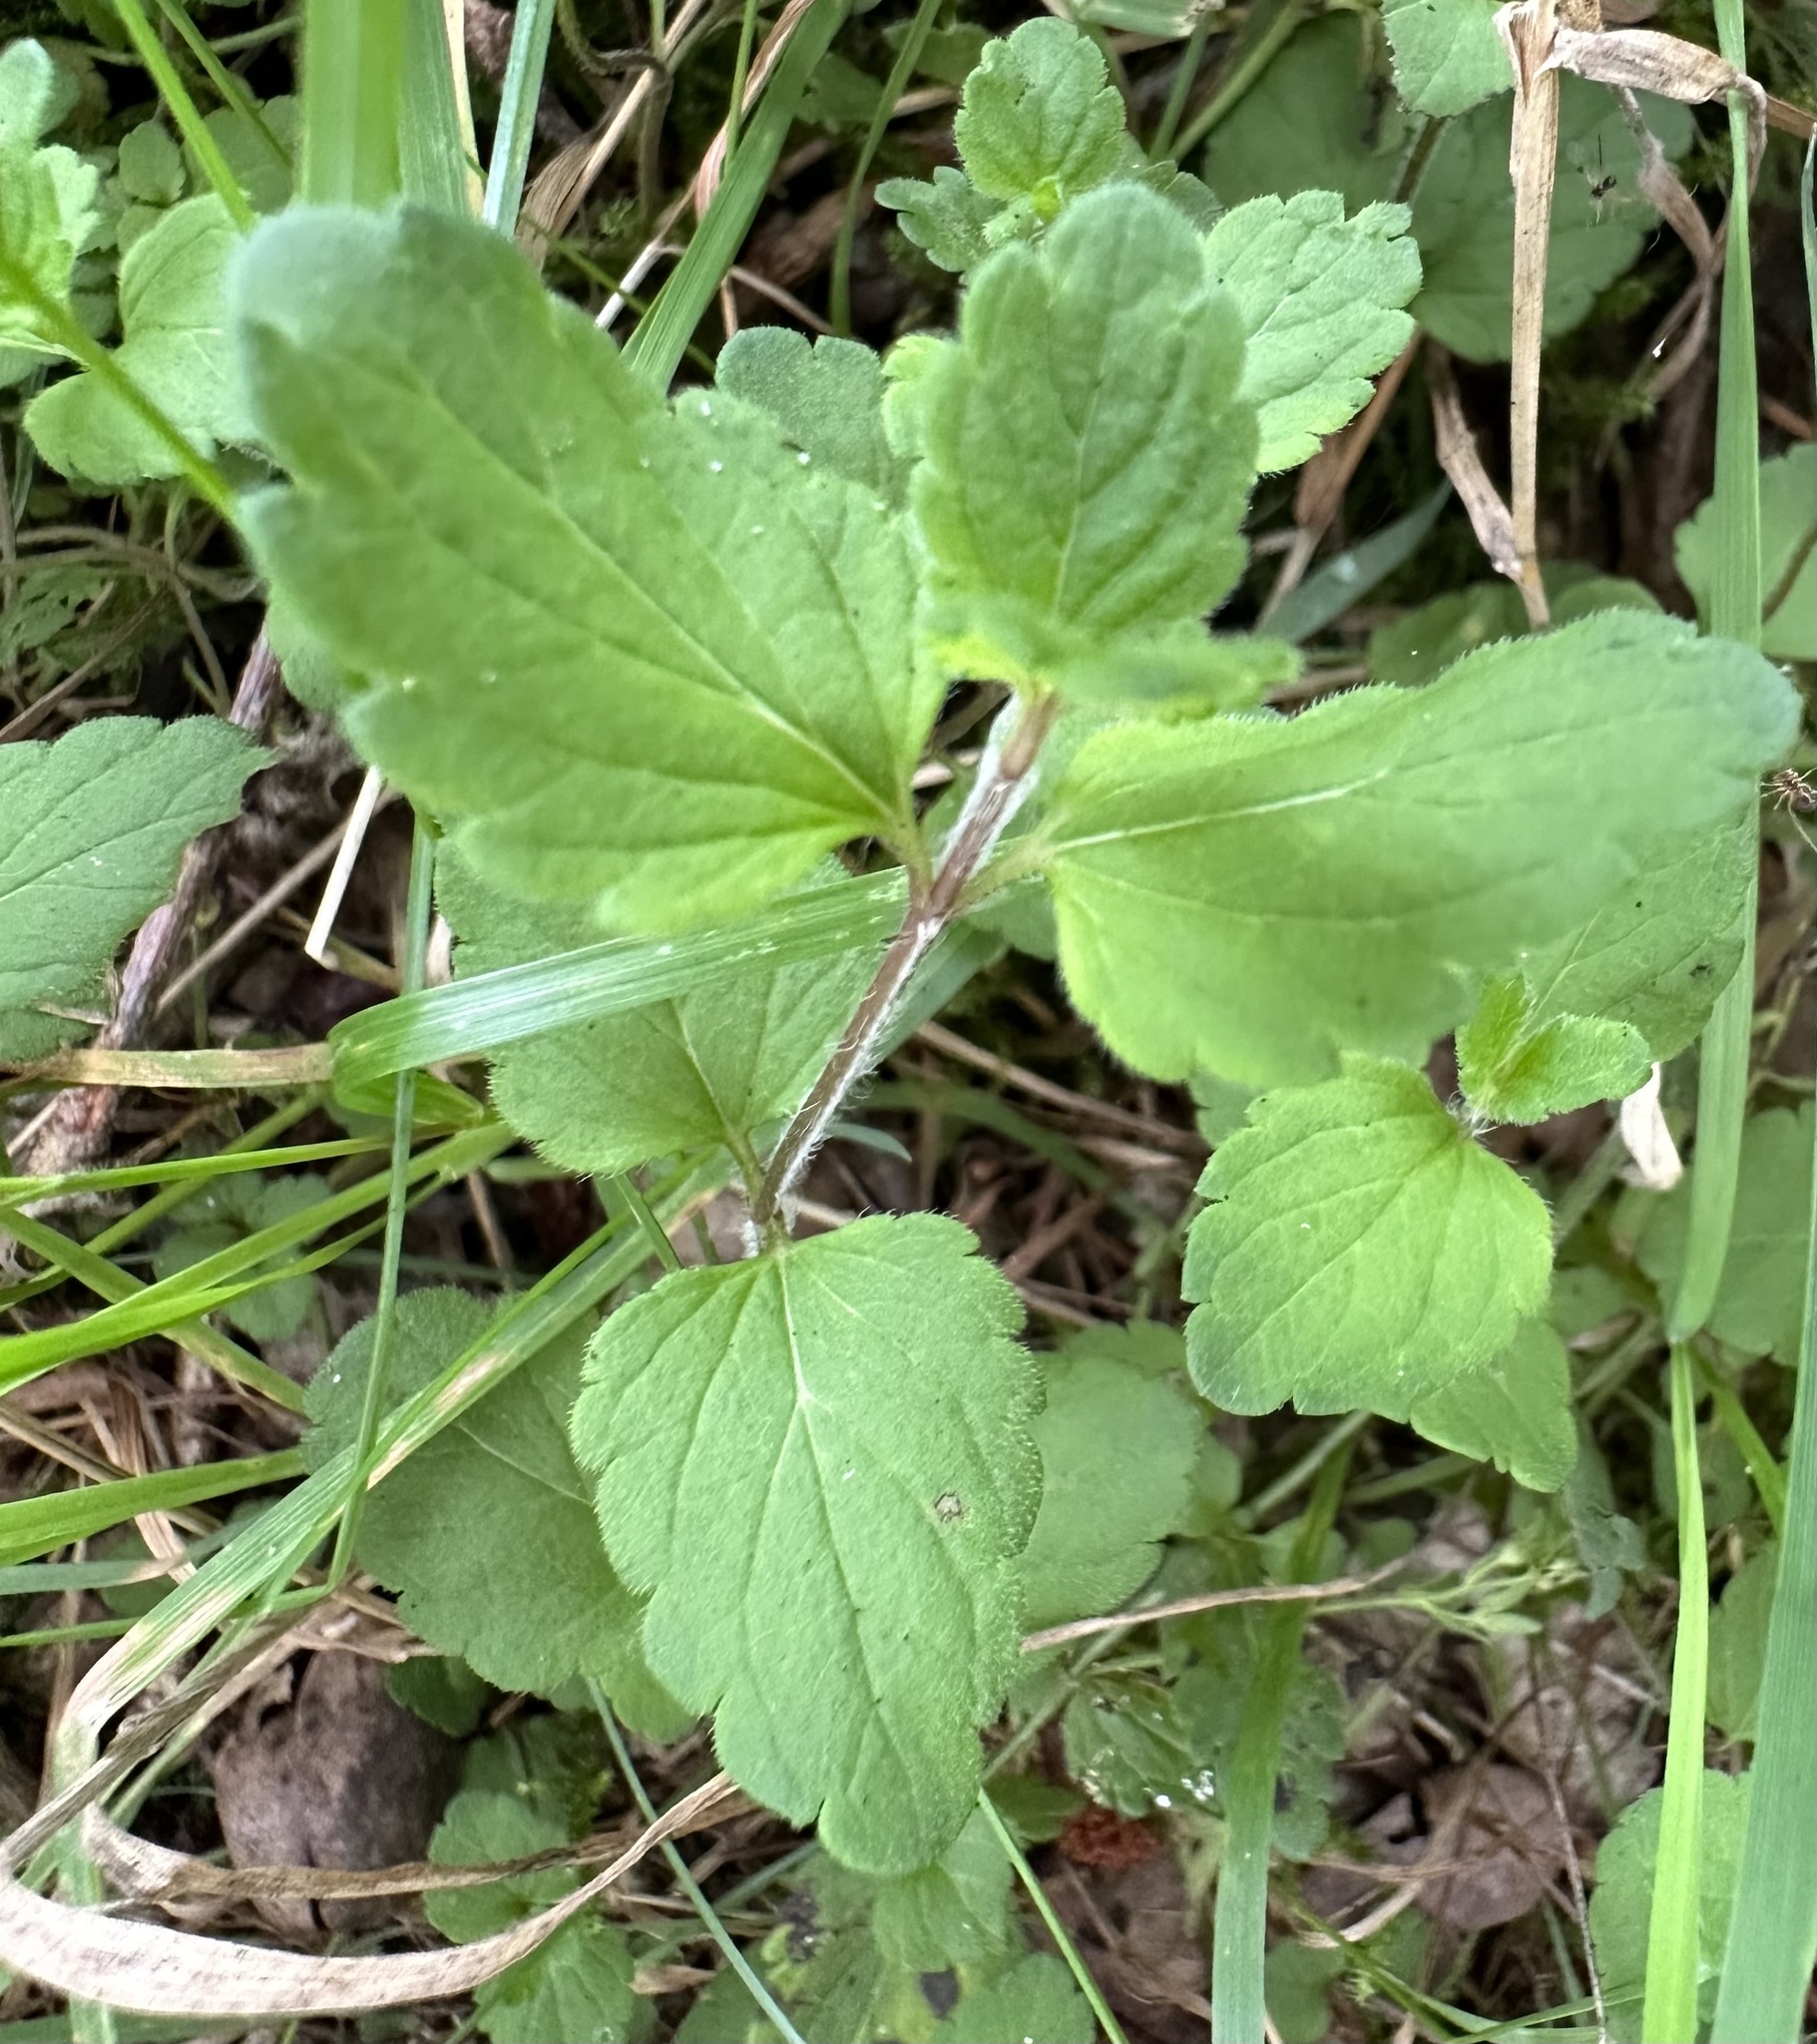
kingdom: Plantae
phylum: Tracheophyta
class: Magnoliopsida
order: Lamiales
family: Plantaginaceae
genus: Veronica
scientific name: Veronica chamaedrys
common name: Germander speedwell
